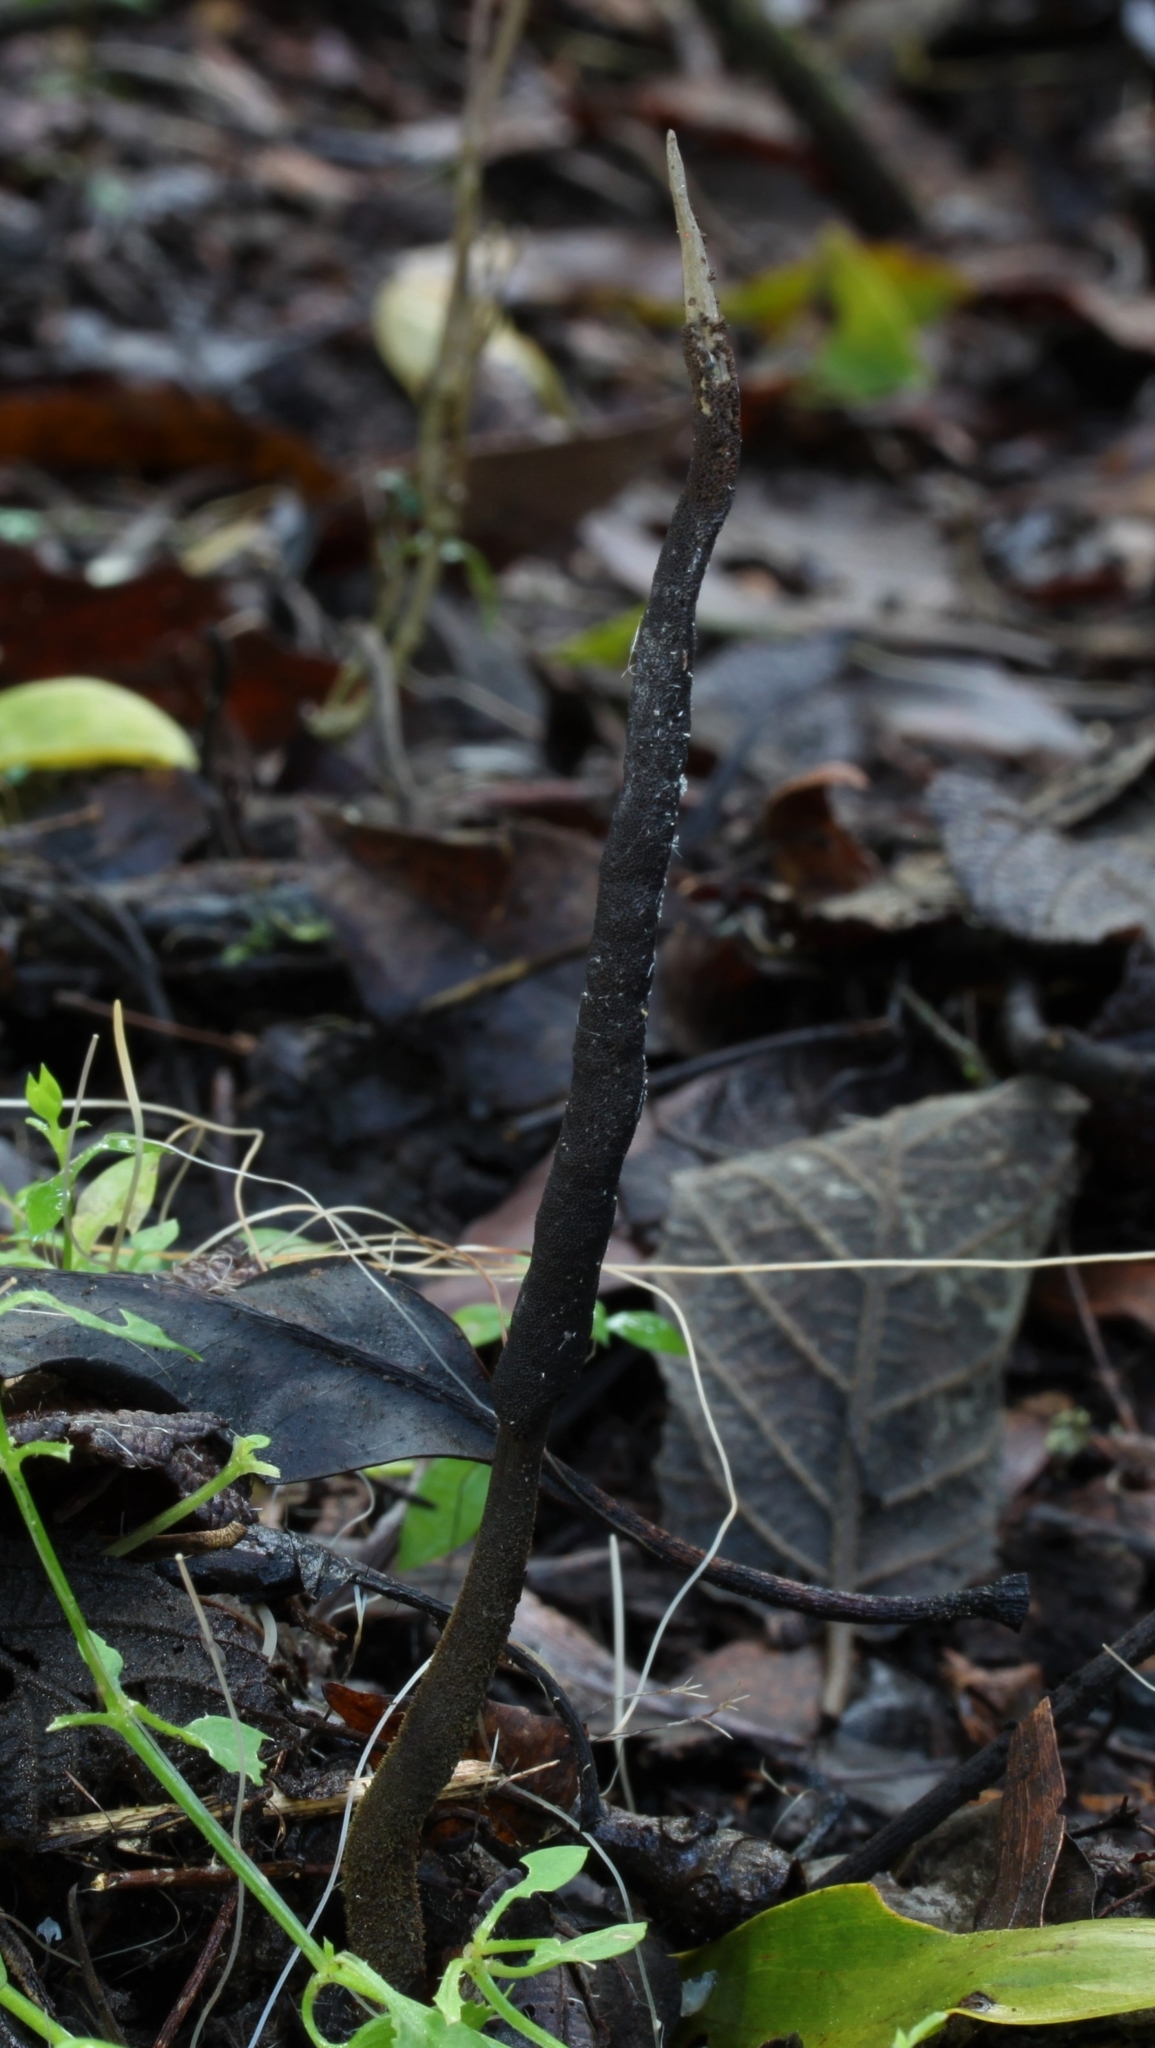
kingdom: Fungi
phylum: Ascomycota
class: Sordariomycetes
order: Hypocreales
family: Ophiocordycipitaceae
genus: Ophiocordyceps
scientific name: Ophiocordyceps robertsii
